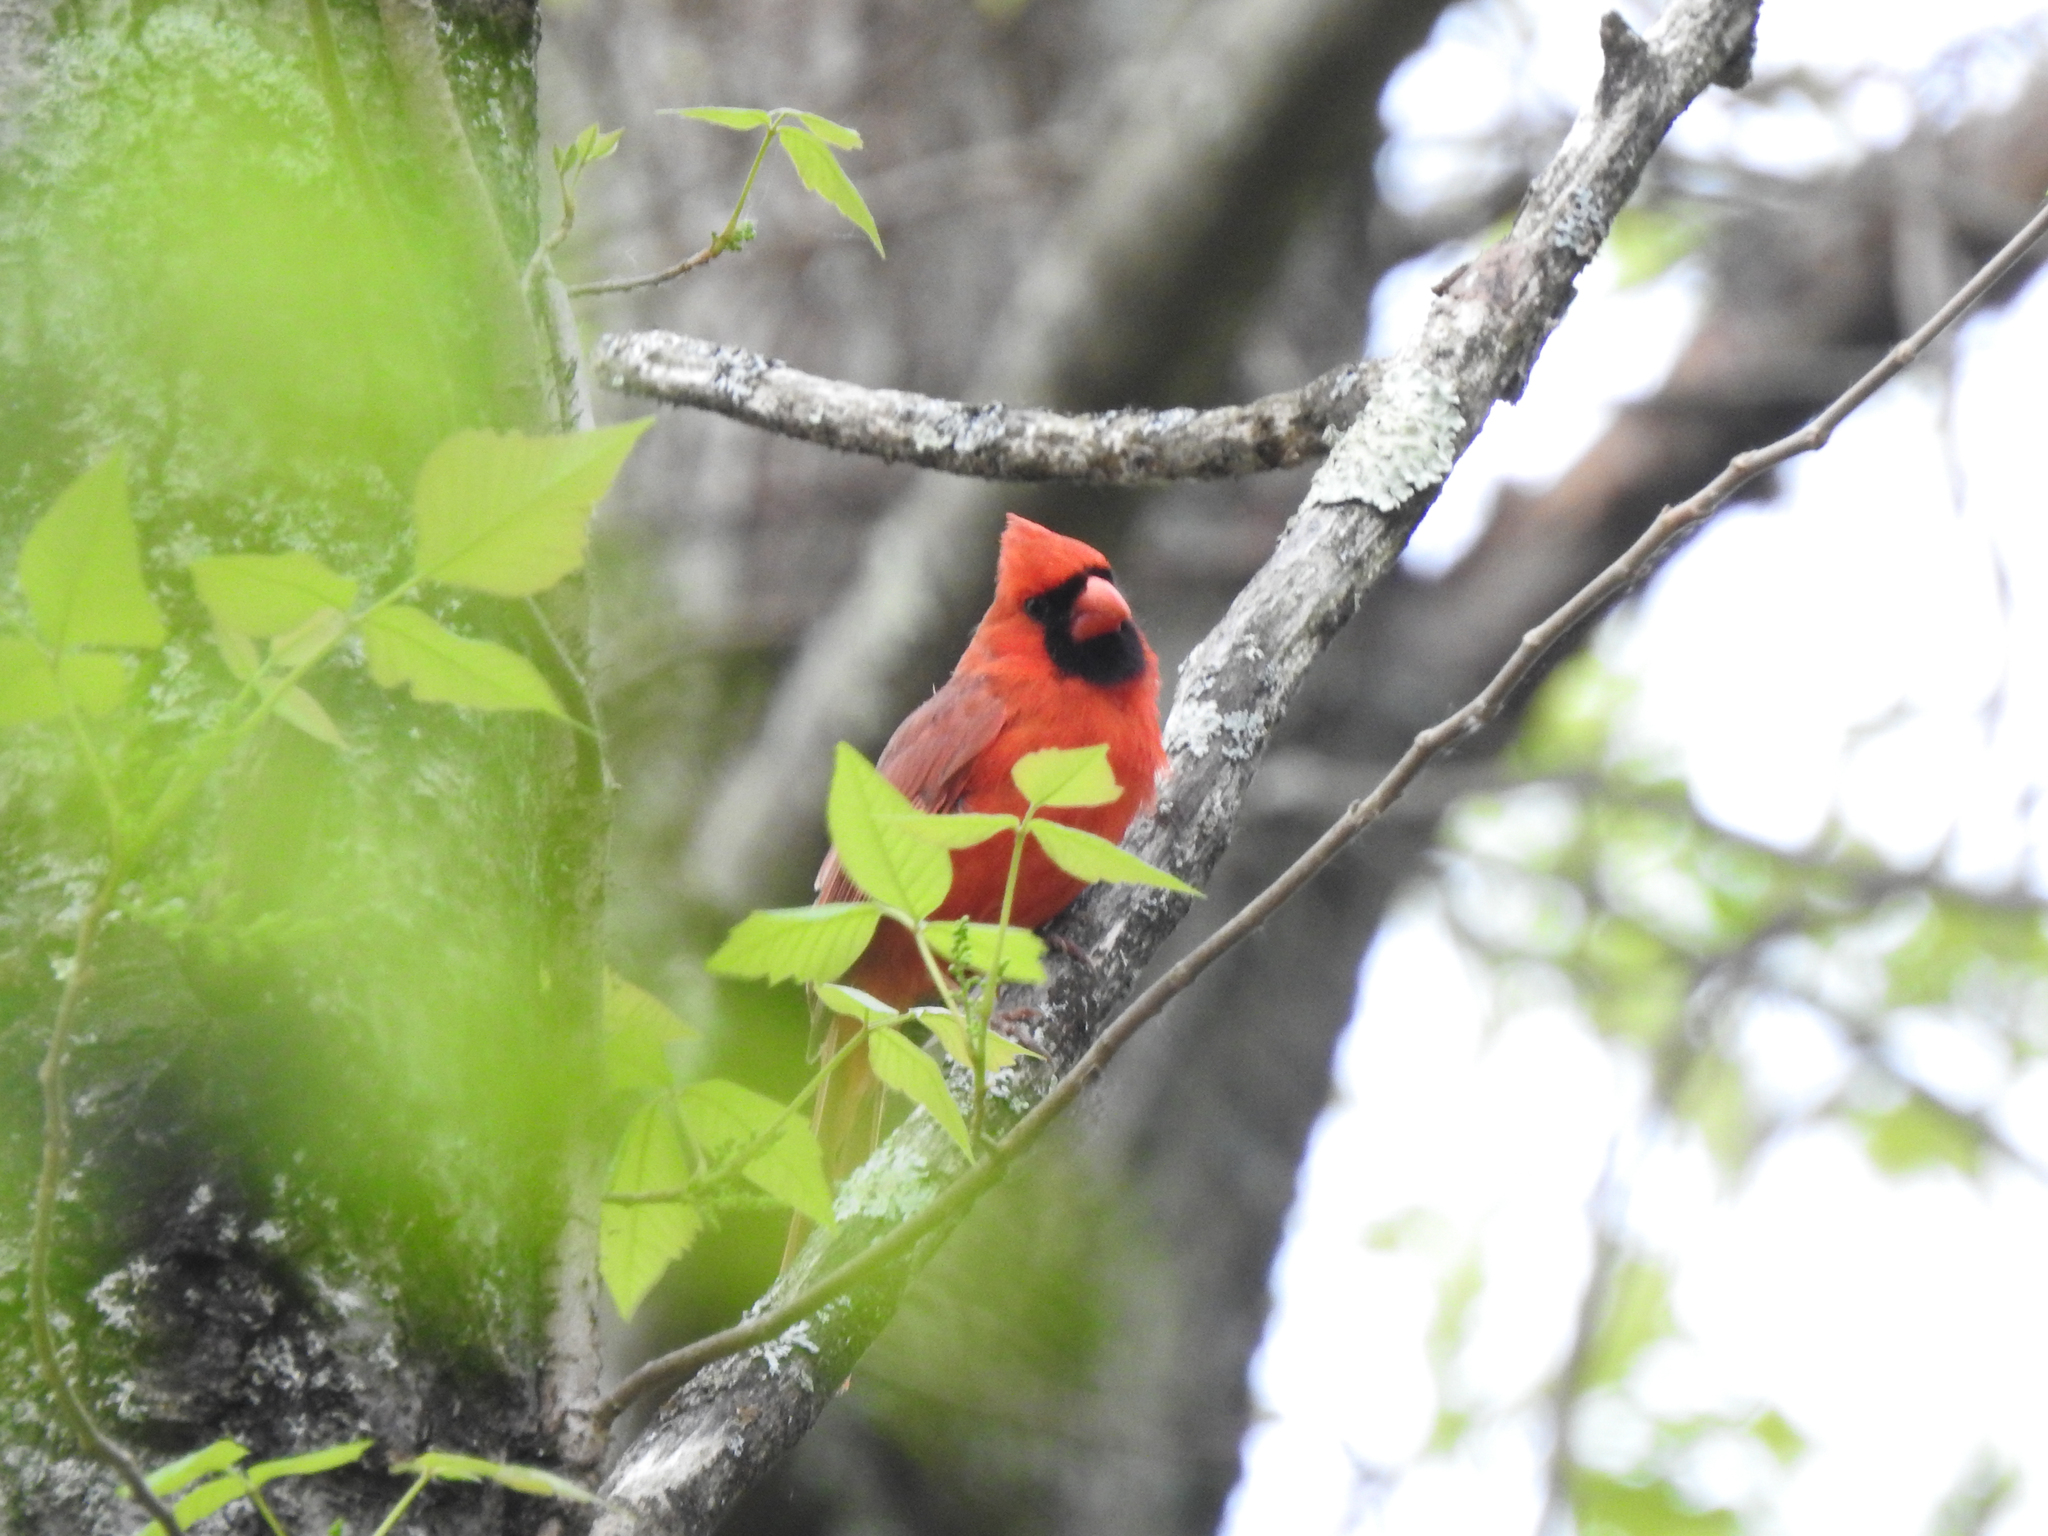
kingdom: Animalia
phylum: Chordata
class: Aves
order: Passeriformes
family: Cardinalidae
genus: Cardinalis
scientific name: Cardinalis cardinalis
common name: Northern cardinal
